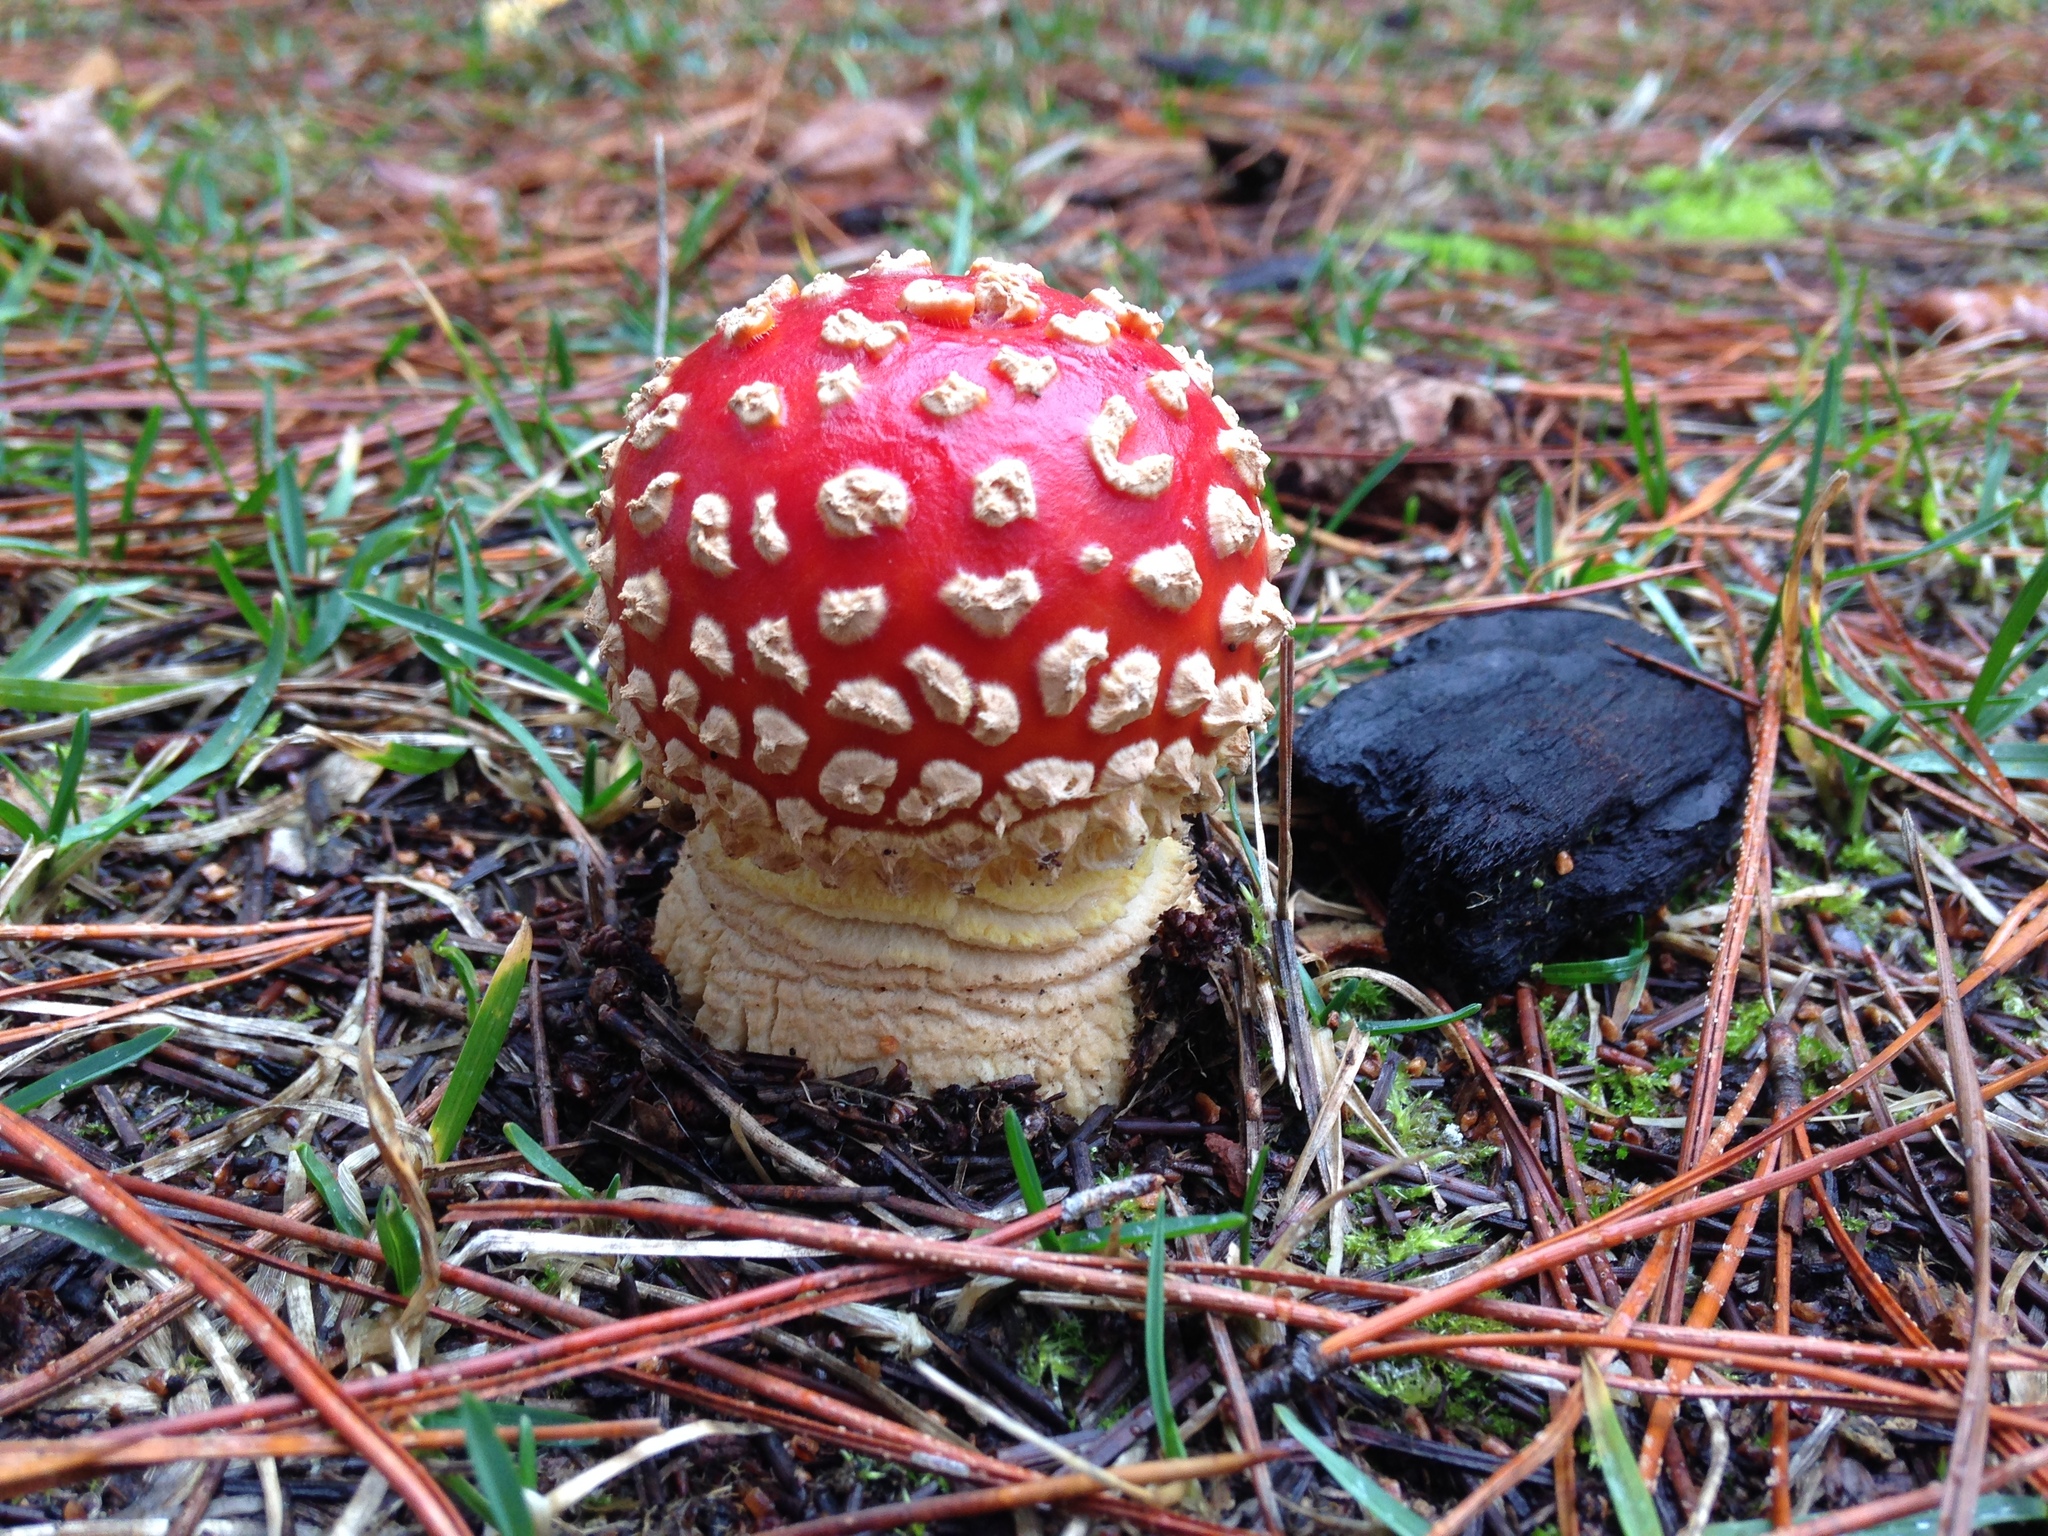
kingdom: Fungi
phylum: Basidiomycota
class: Agaricomycetes
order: Agaricales
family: Amanitaceae
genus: Amanita
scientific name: Amanita muscaria
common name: Fly agaric
